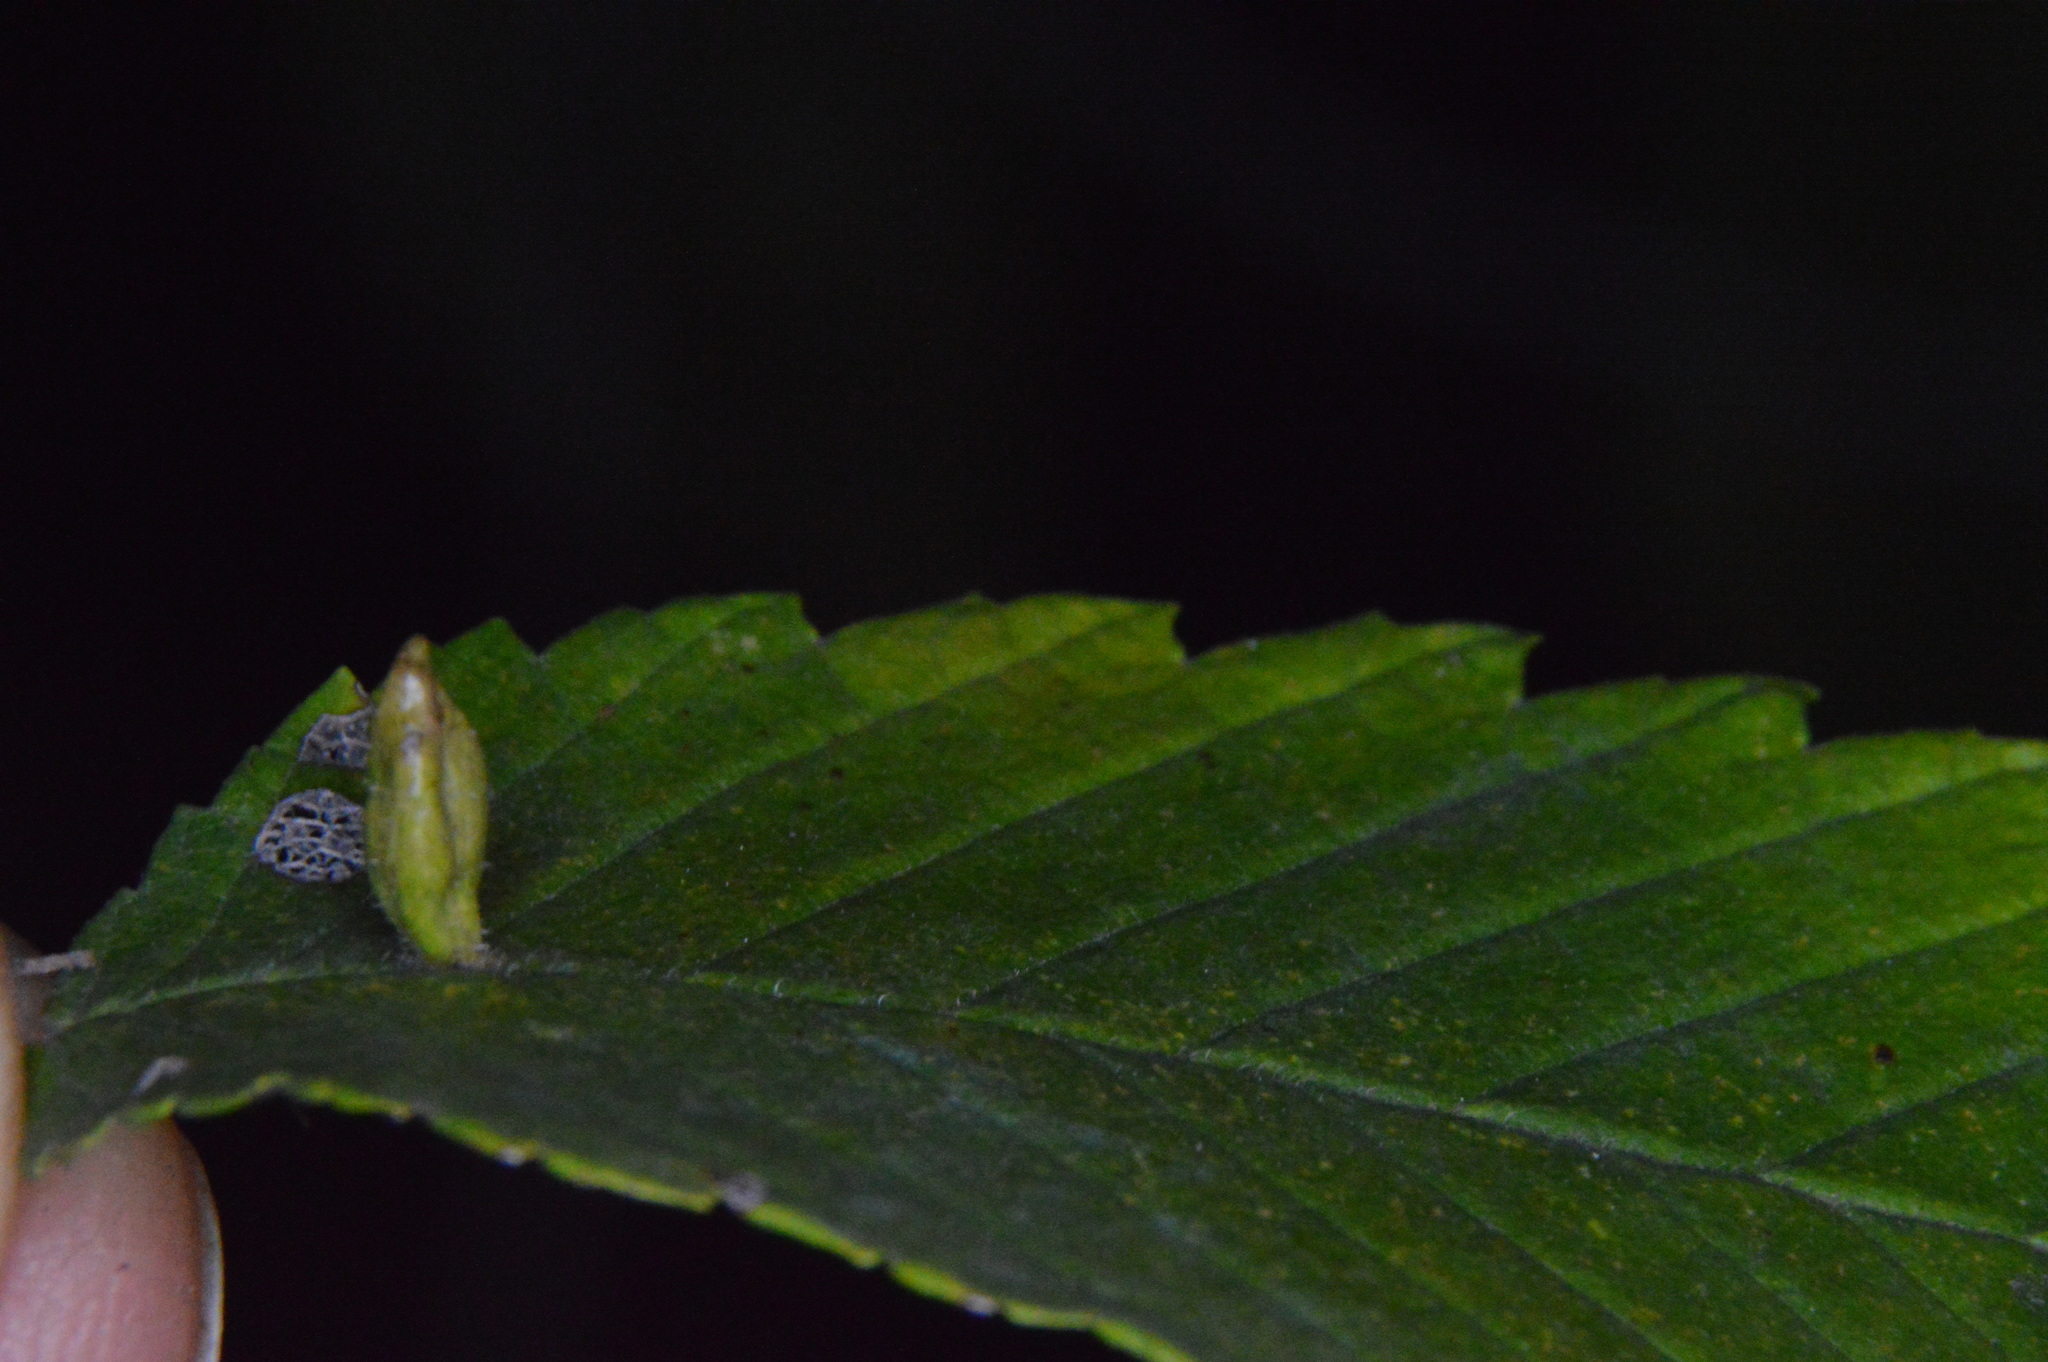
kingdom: Animalia
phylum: Arthropoda
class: Arachnida
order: Trombidiformes
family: Eriophyidae
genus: Aceria
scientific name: Aceria
